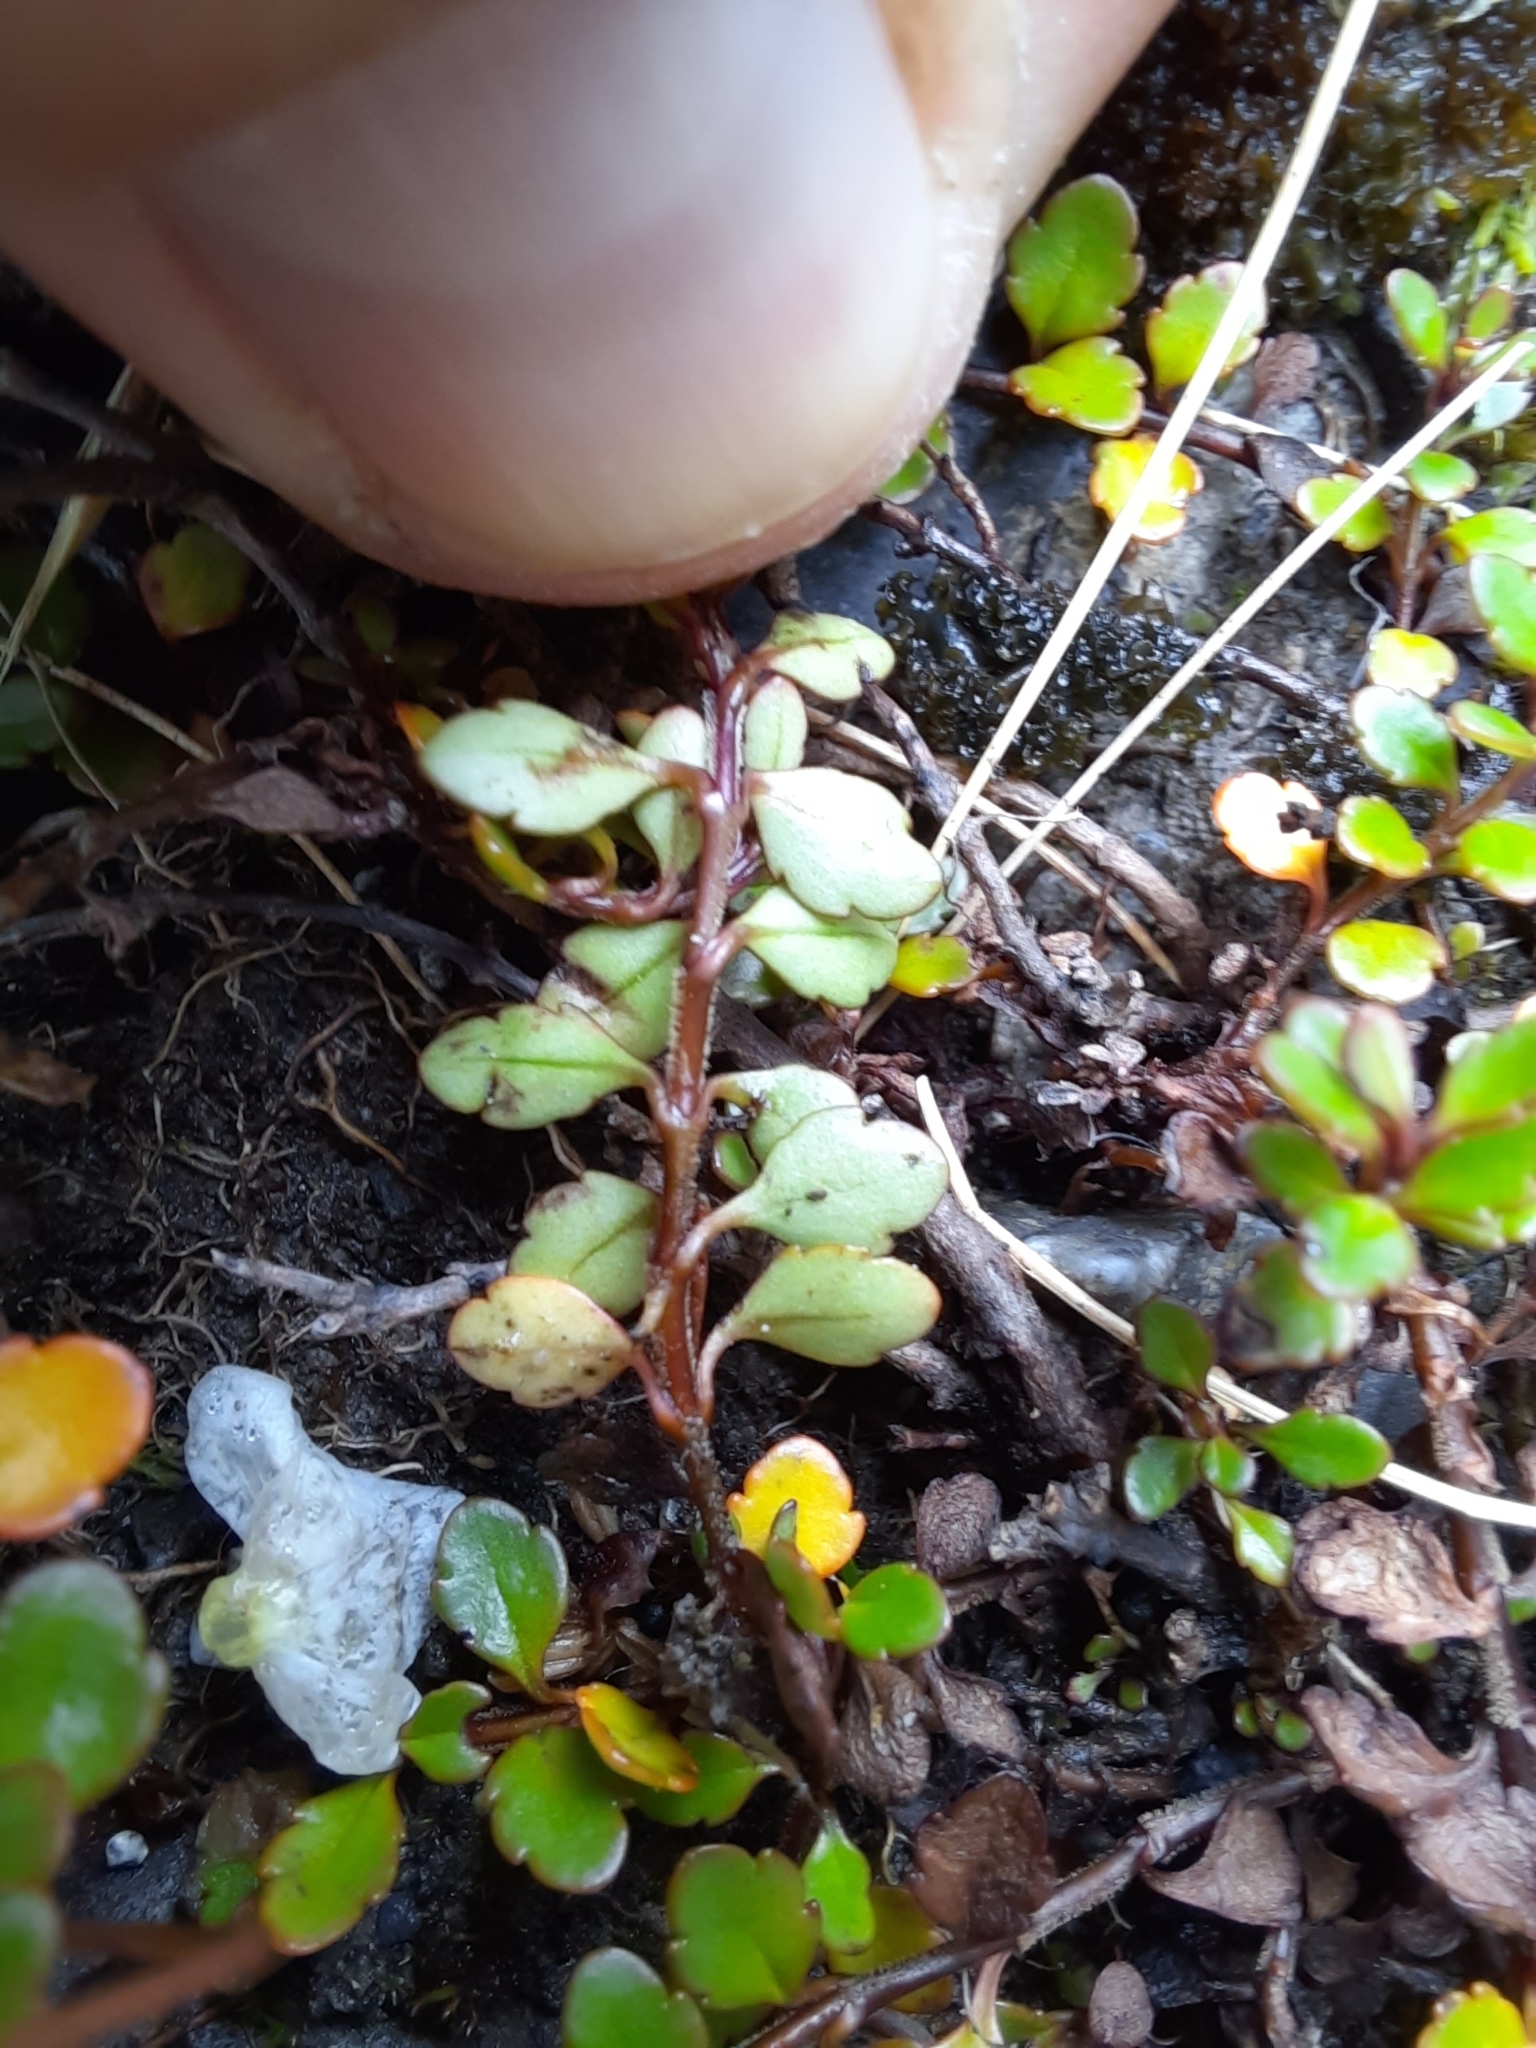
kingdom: Plantae
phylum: Tracheophyta
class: Magnoliopsida
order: Lamiales
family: Plantaginaceae
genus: Veronica
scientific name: Veronica lyallii
